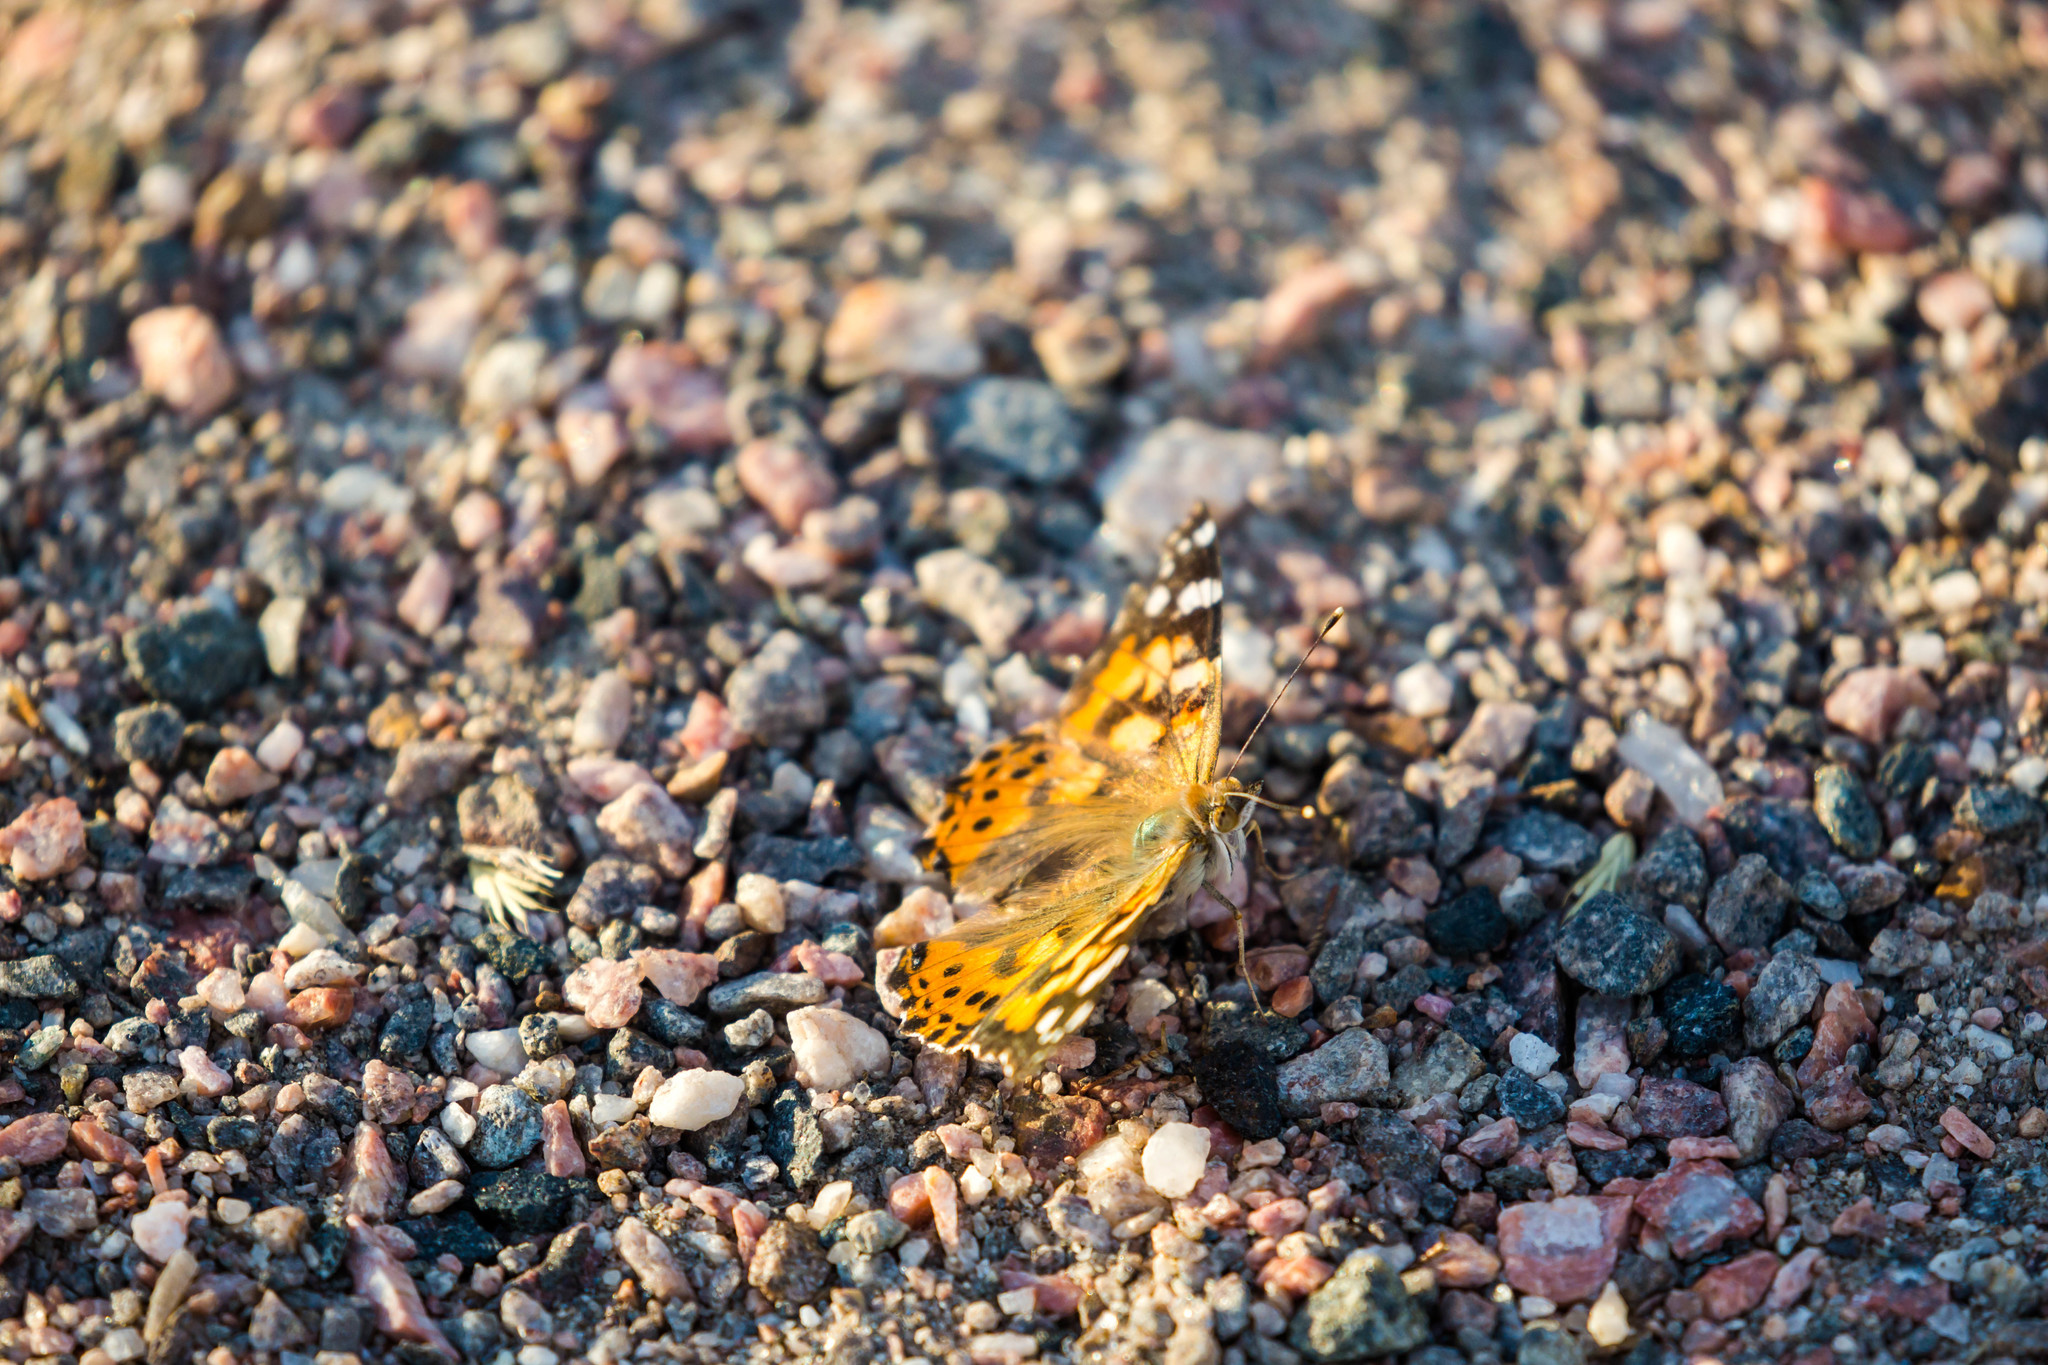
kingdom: Animalia
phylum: Arthropoda
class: Insecta
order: Lepidoptera
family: Nymphalidae
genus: Vanessa
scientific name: Vanessa cardui
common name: Painted lady
